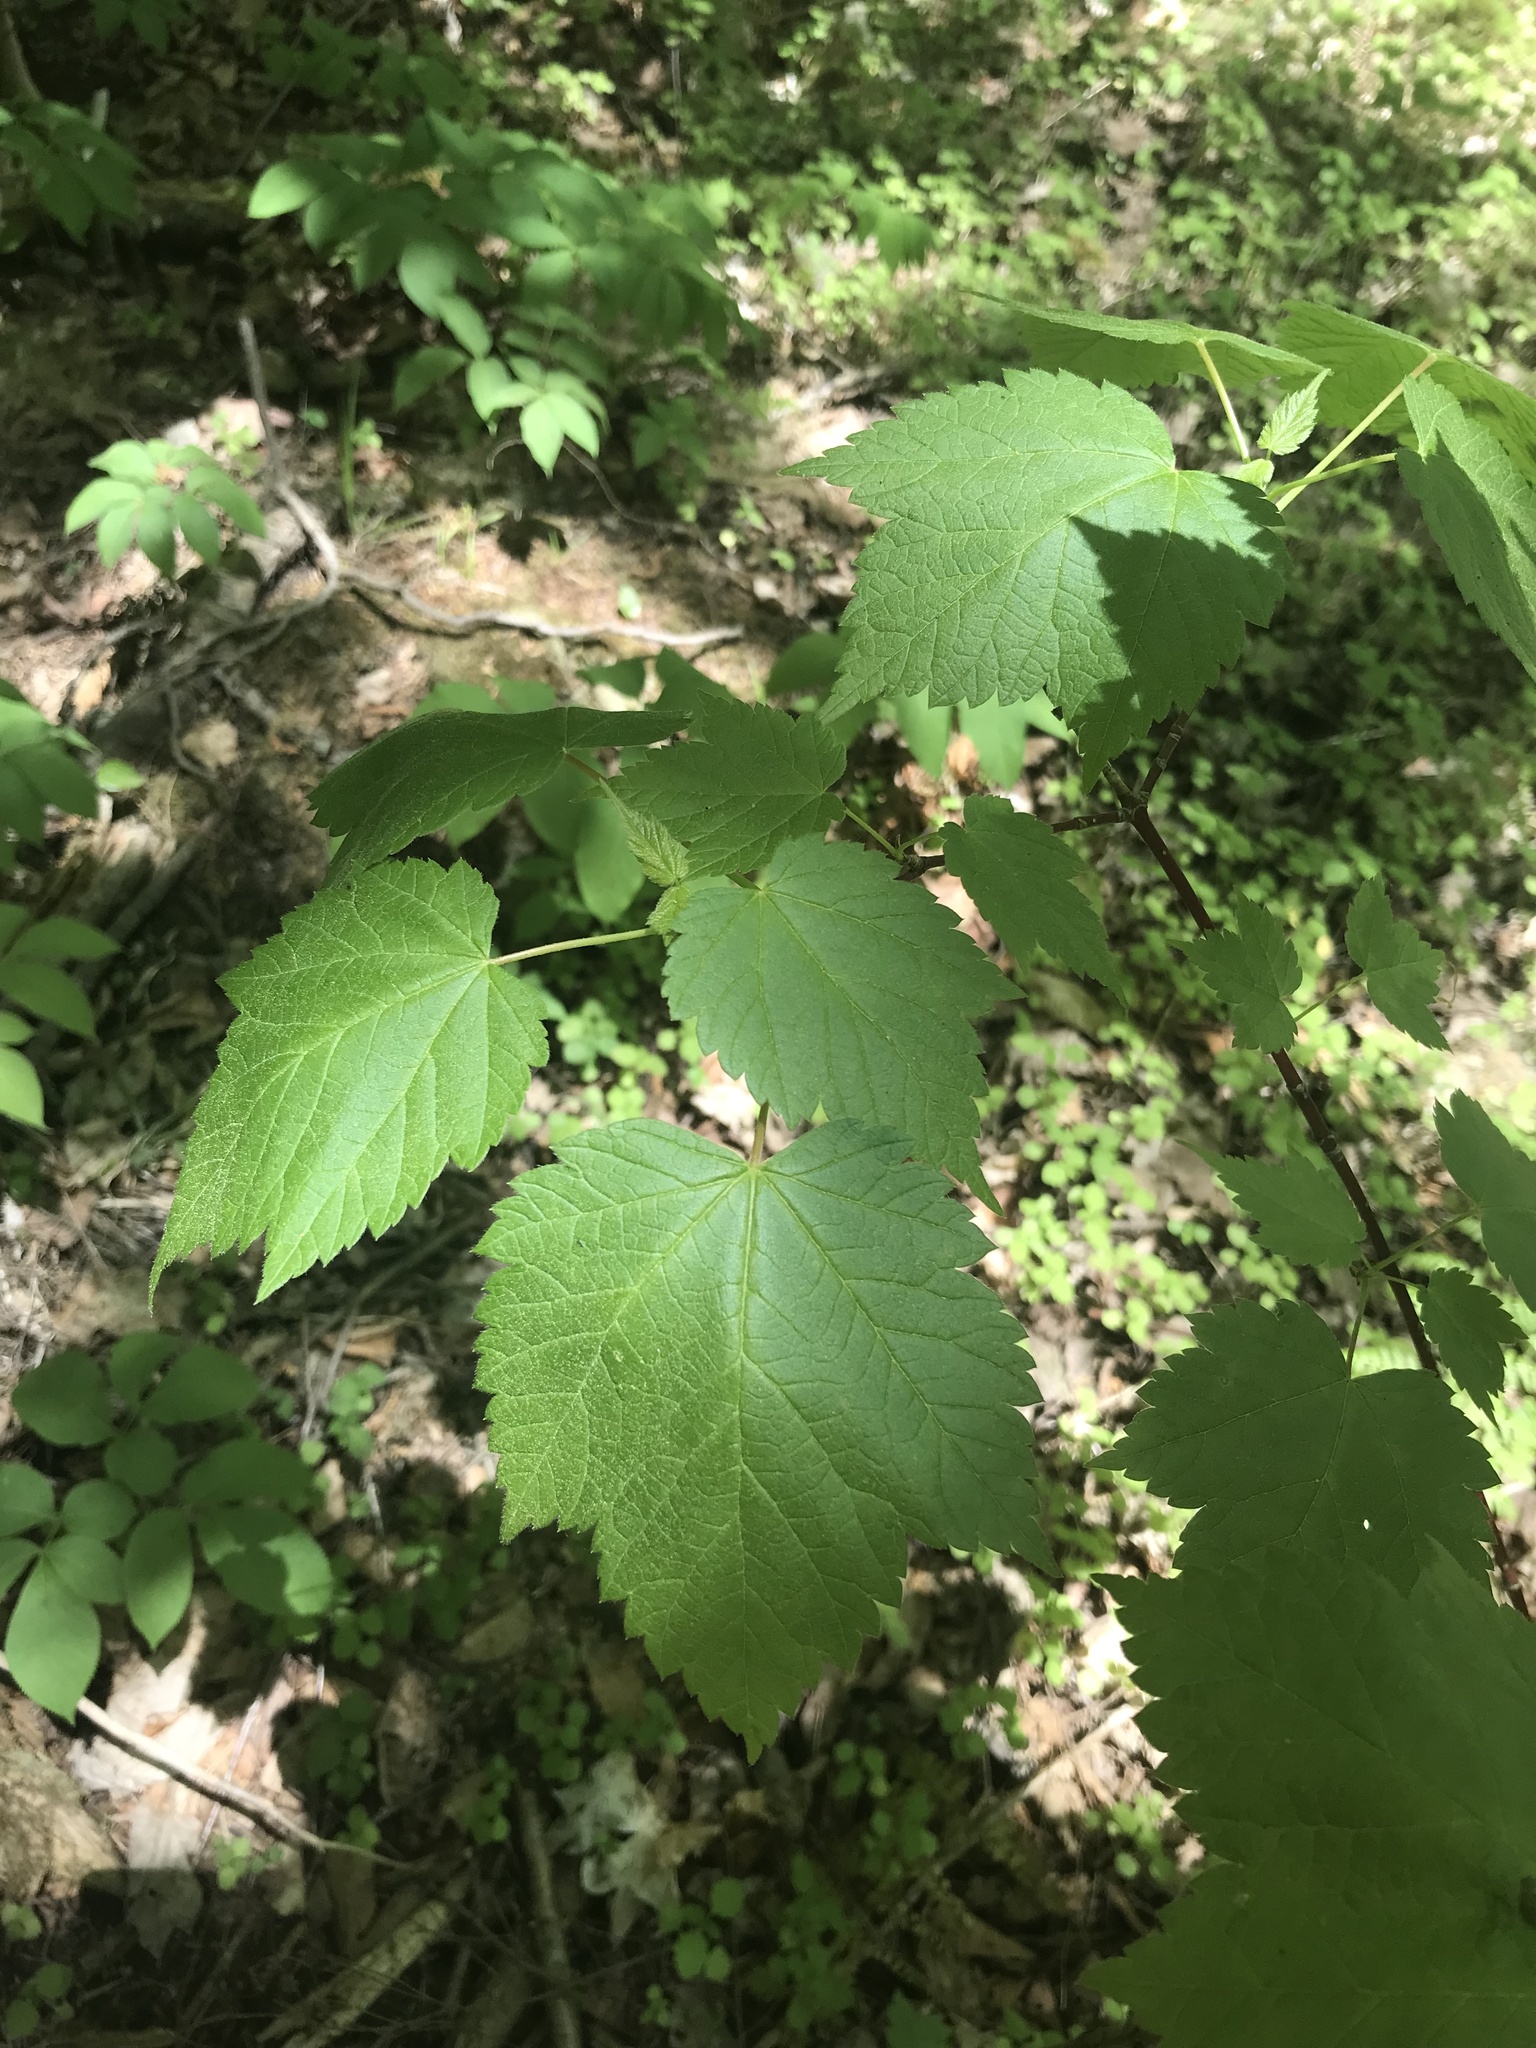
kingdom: Plantae
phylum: Tracheophyta
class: Magnoliopsida
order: Sapindales
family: Sapindaceae
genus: Acer
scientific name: Acer spicatum
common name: Mountain maple
